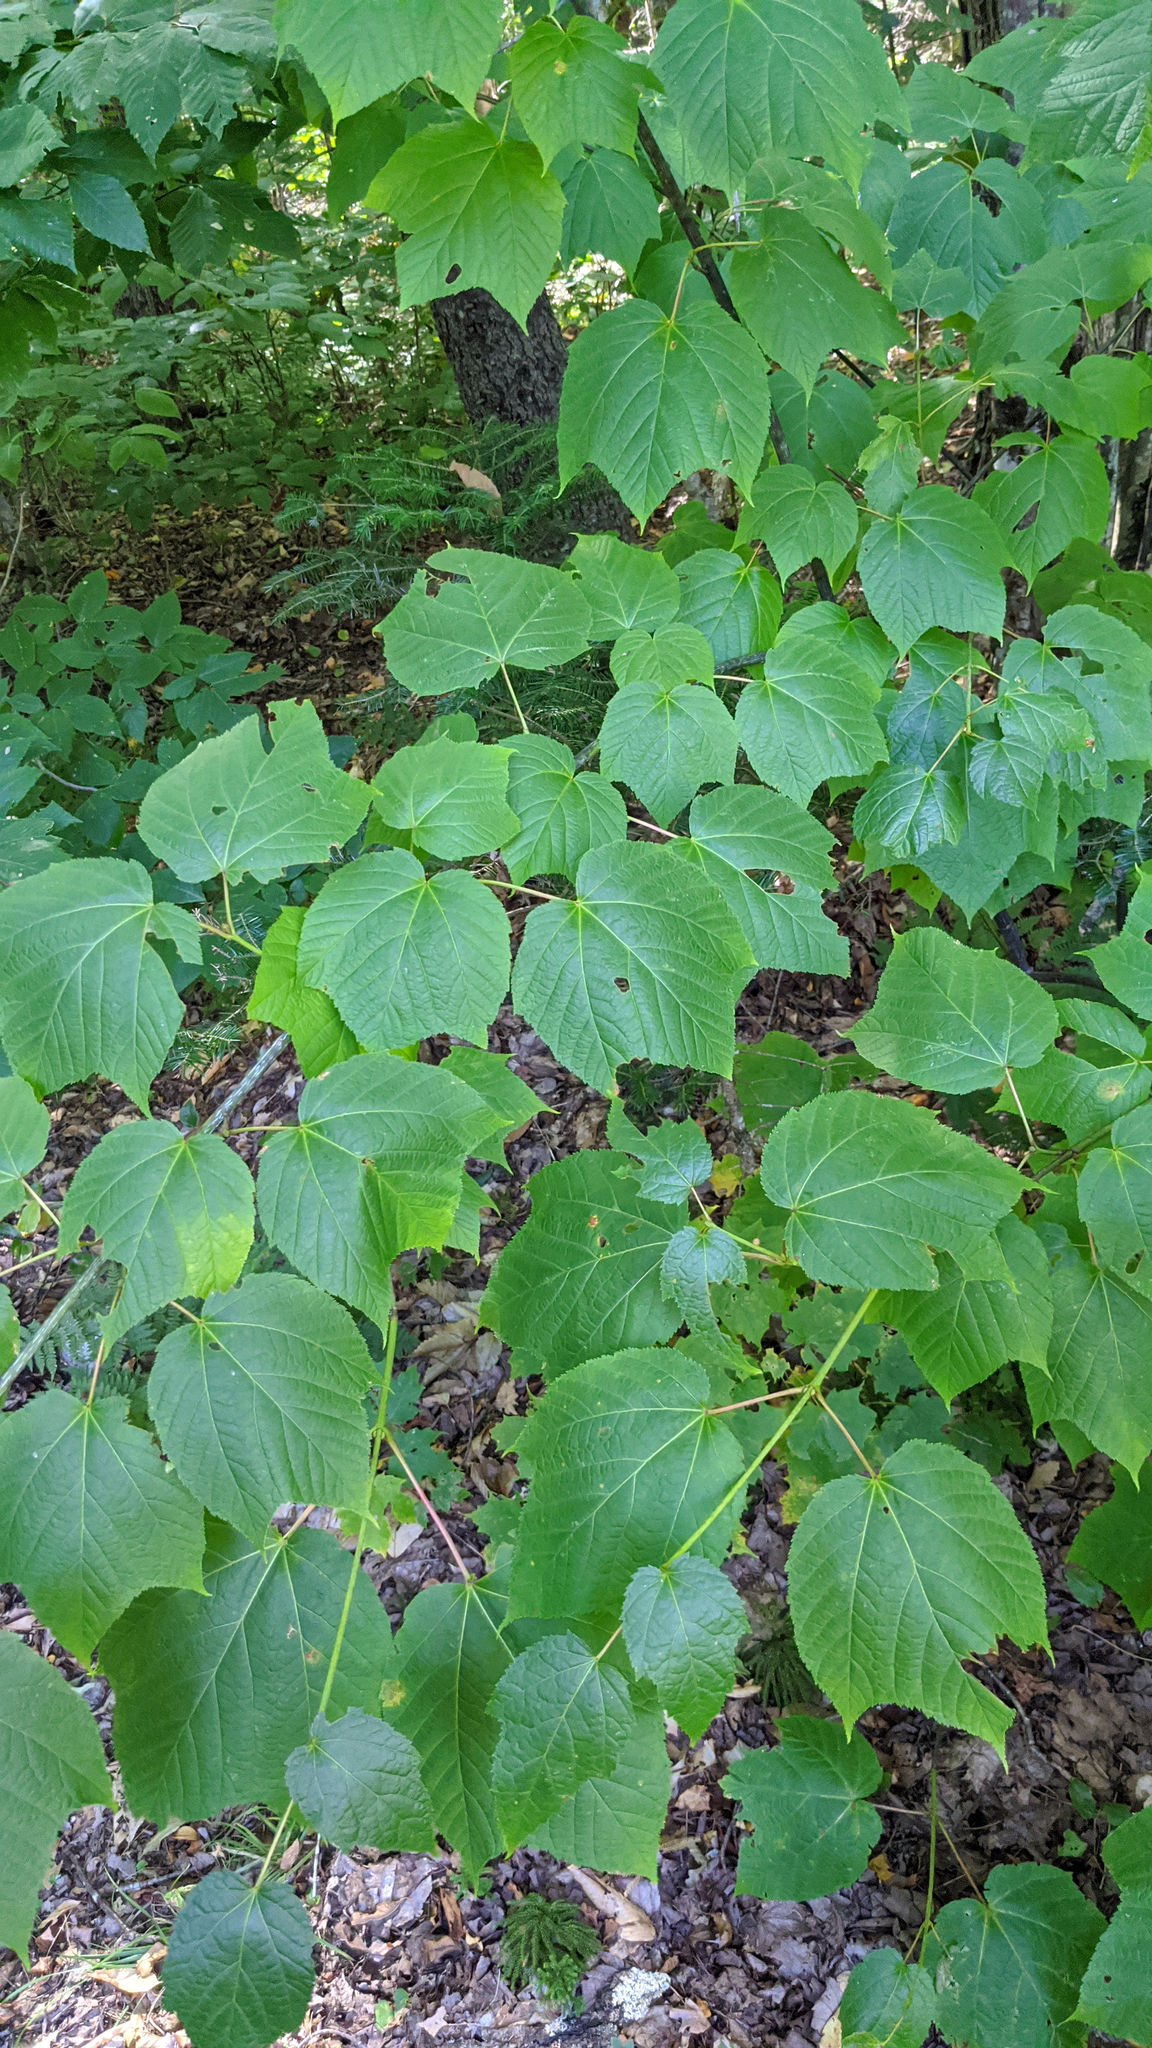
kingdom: Plantae
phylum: Tracheophyta
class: Magnoliopsida
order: Sapindales
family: Sapindaceae
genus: Acer
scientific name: Acer pensylvanicum
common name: Moosewood
